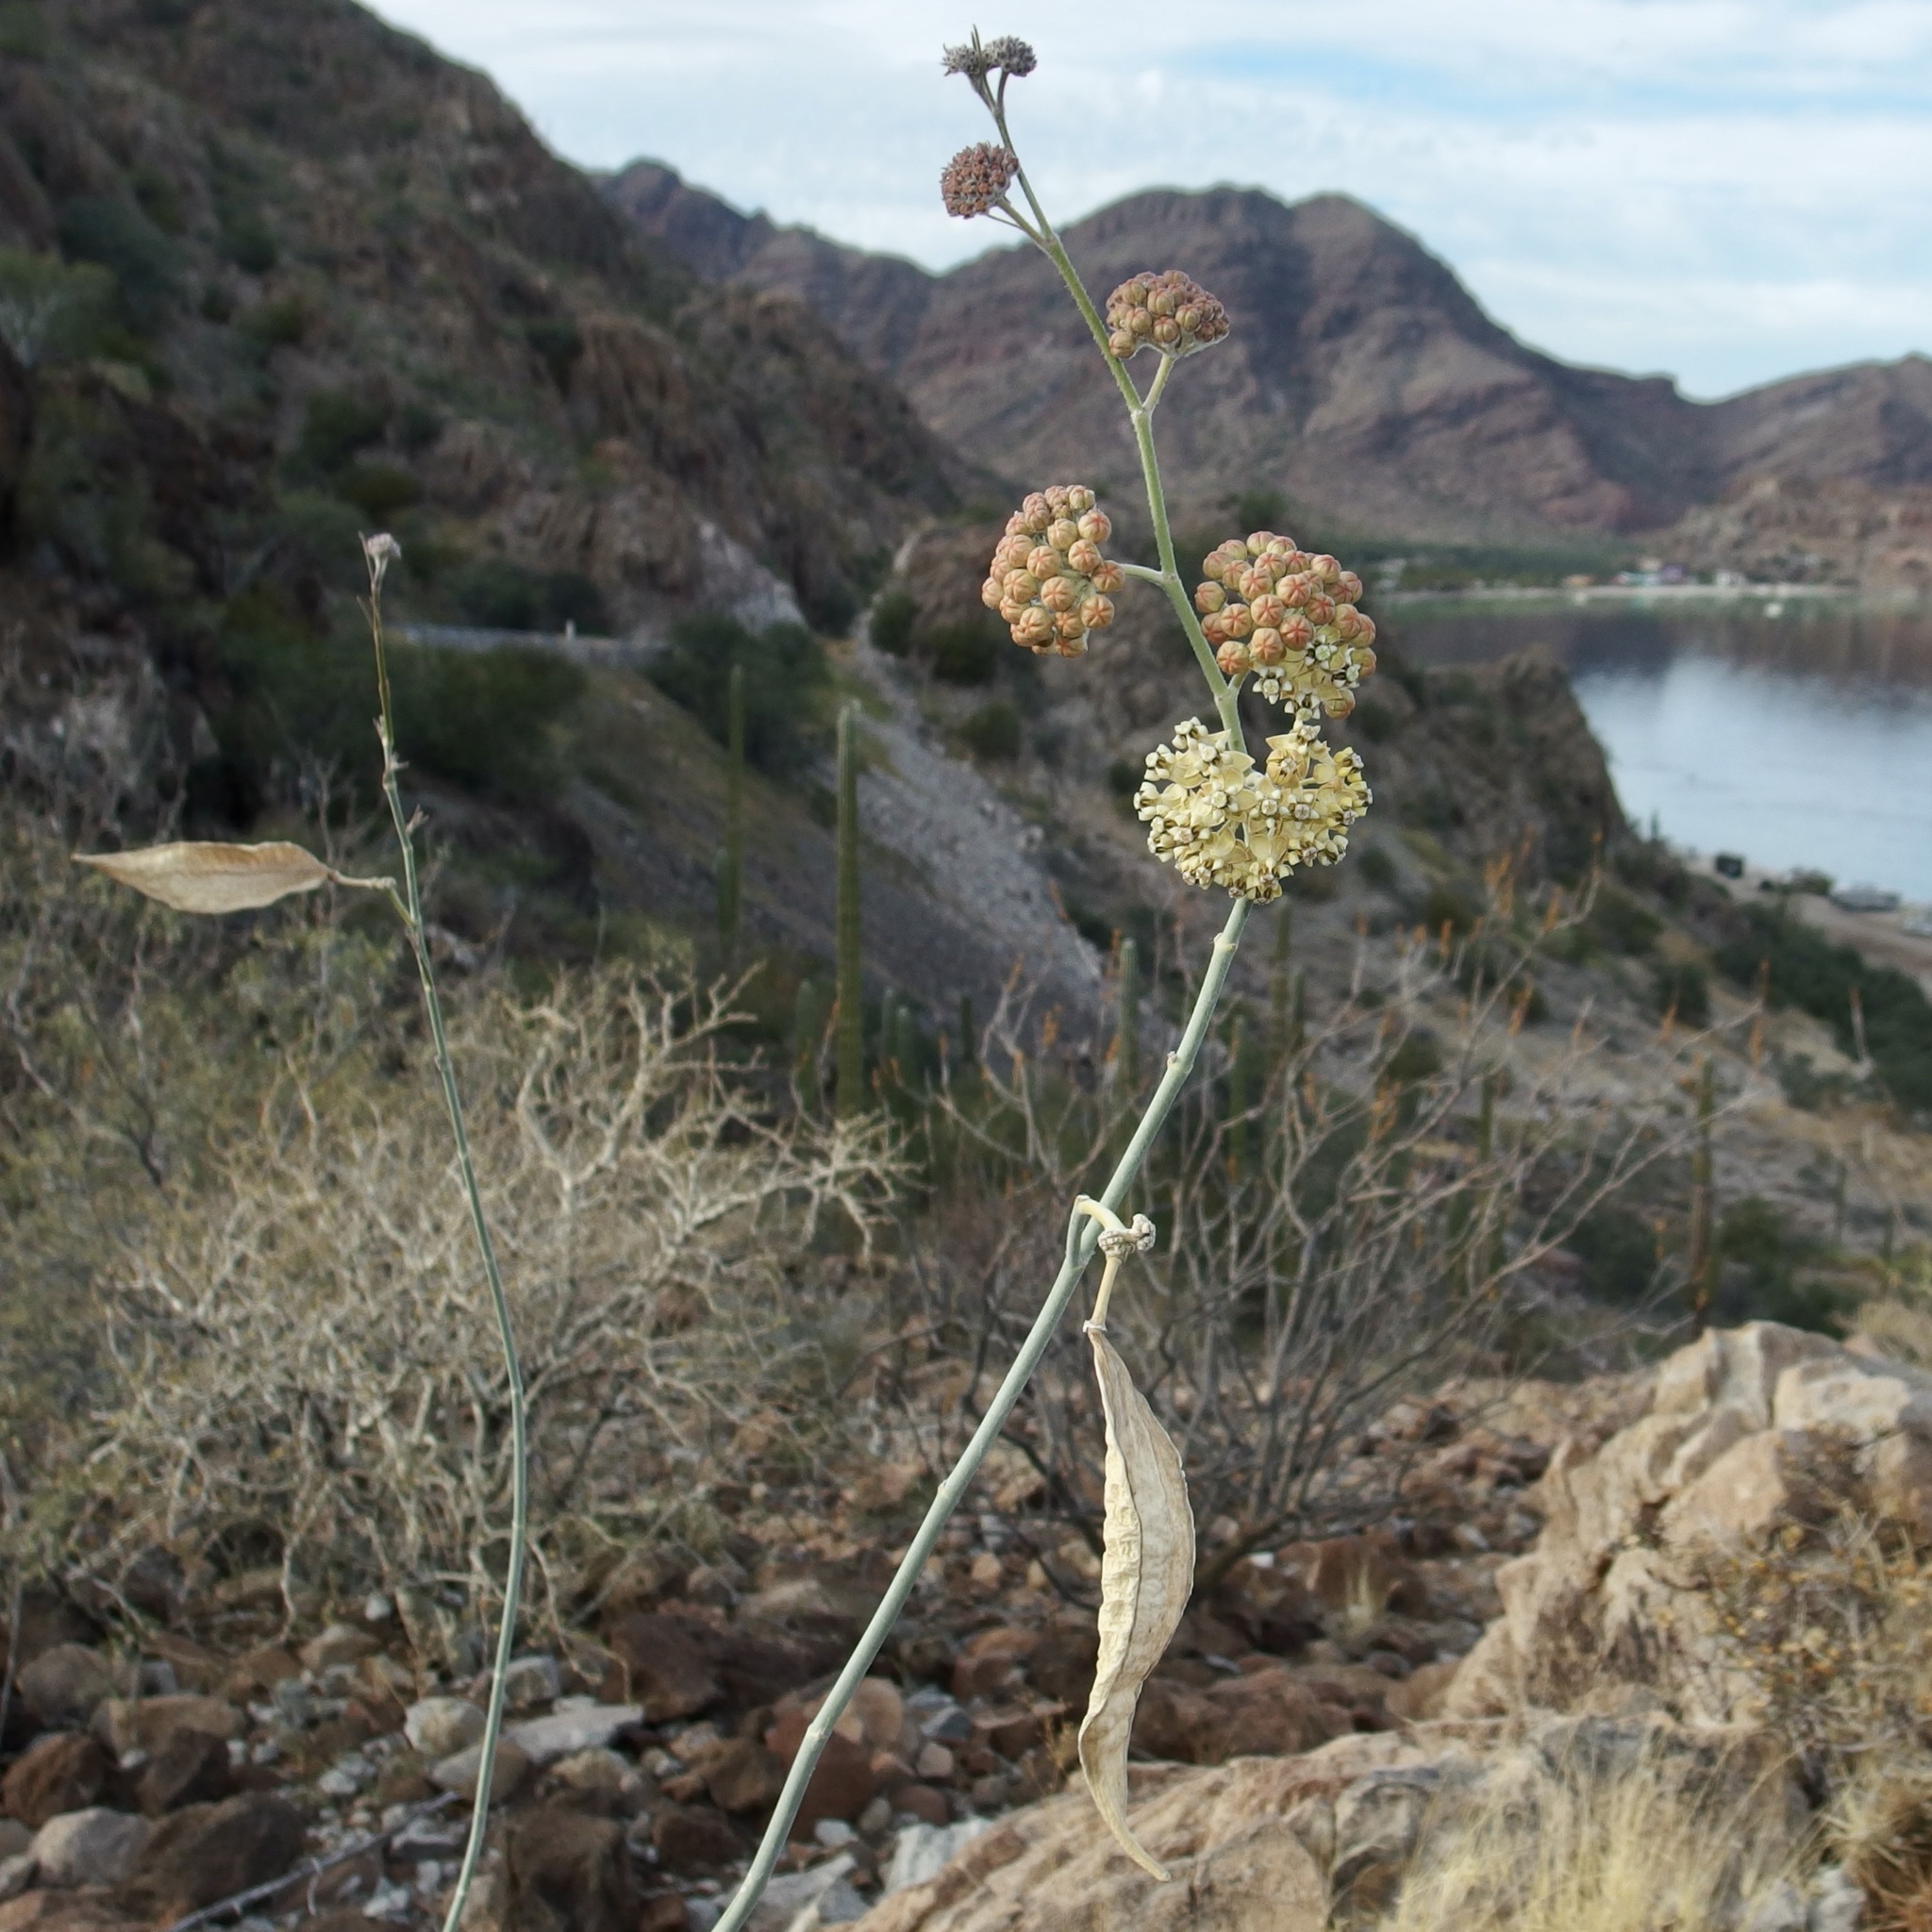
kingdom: Plantae
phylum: Tracheophyta
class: Magnoliopsida
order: Gentianales
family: Apocynaceae
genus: Asclepias
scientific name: Asclepias albicans
